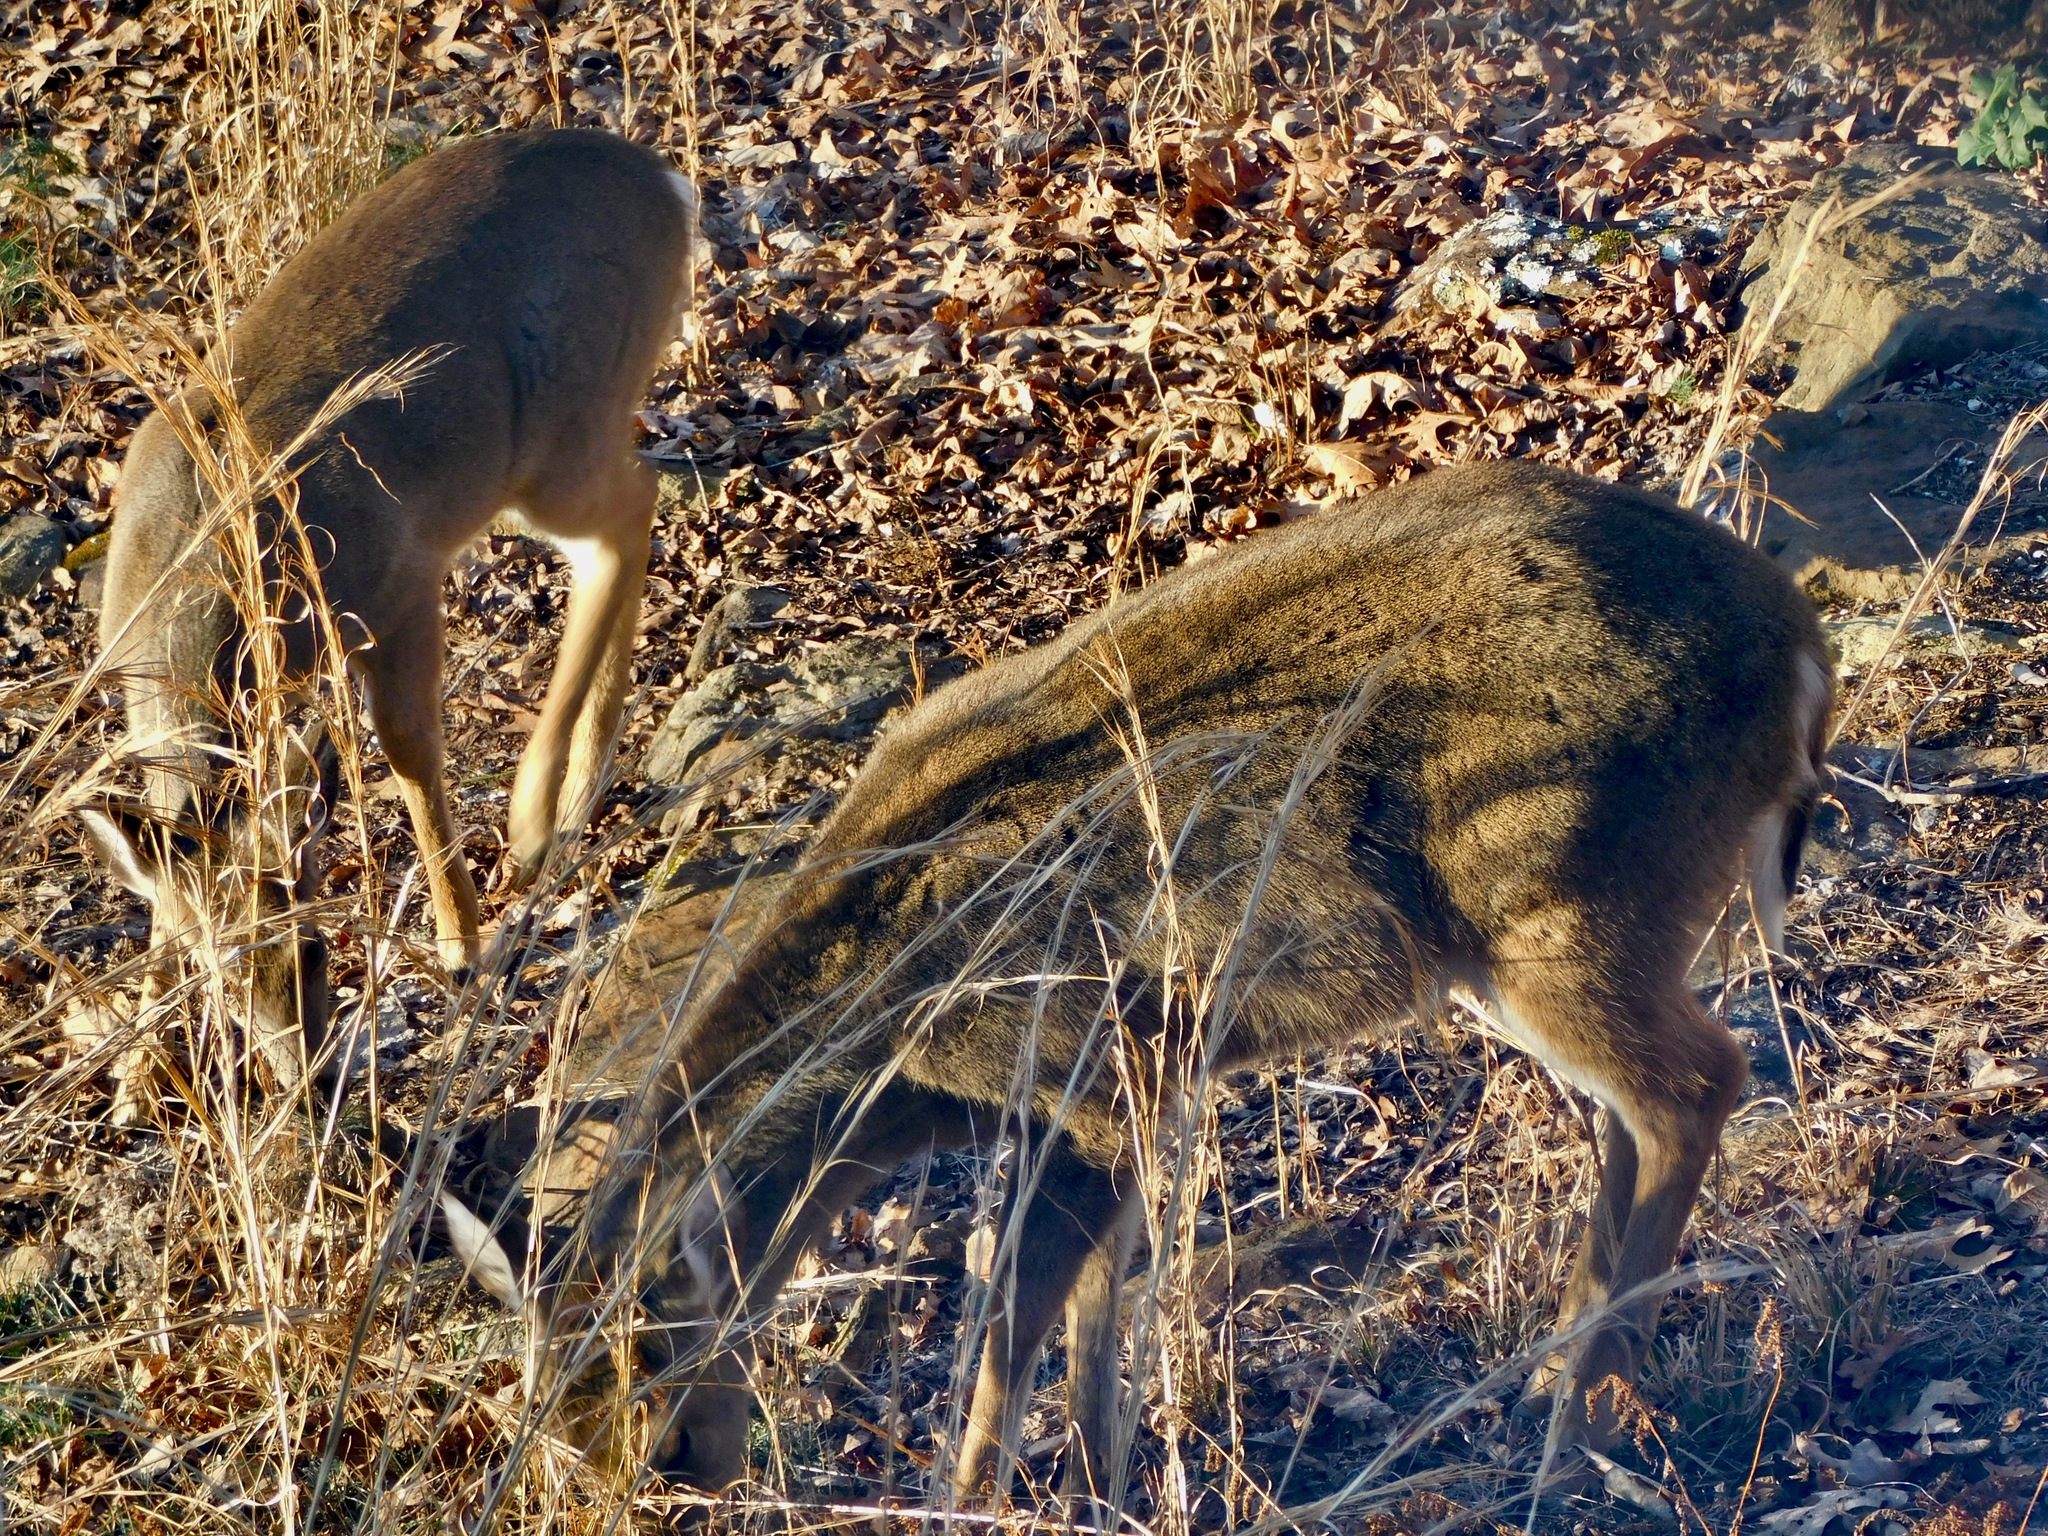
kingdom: Animalia
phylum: Chordata
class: Mammalia
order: Artiodactyla
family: Cervidae
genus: Odocoileus
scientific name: Odocoileus virginianus
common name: White-tailed deer
